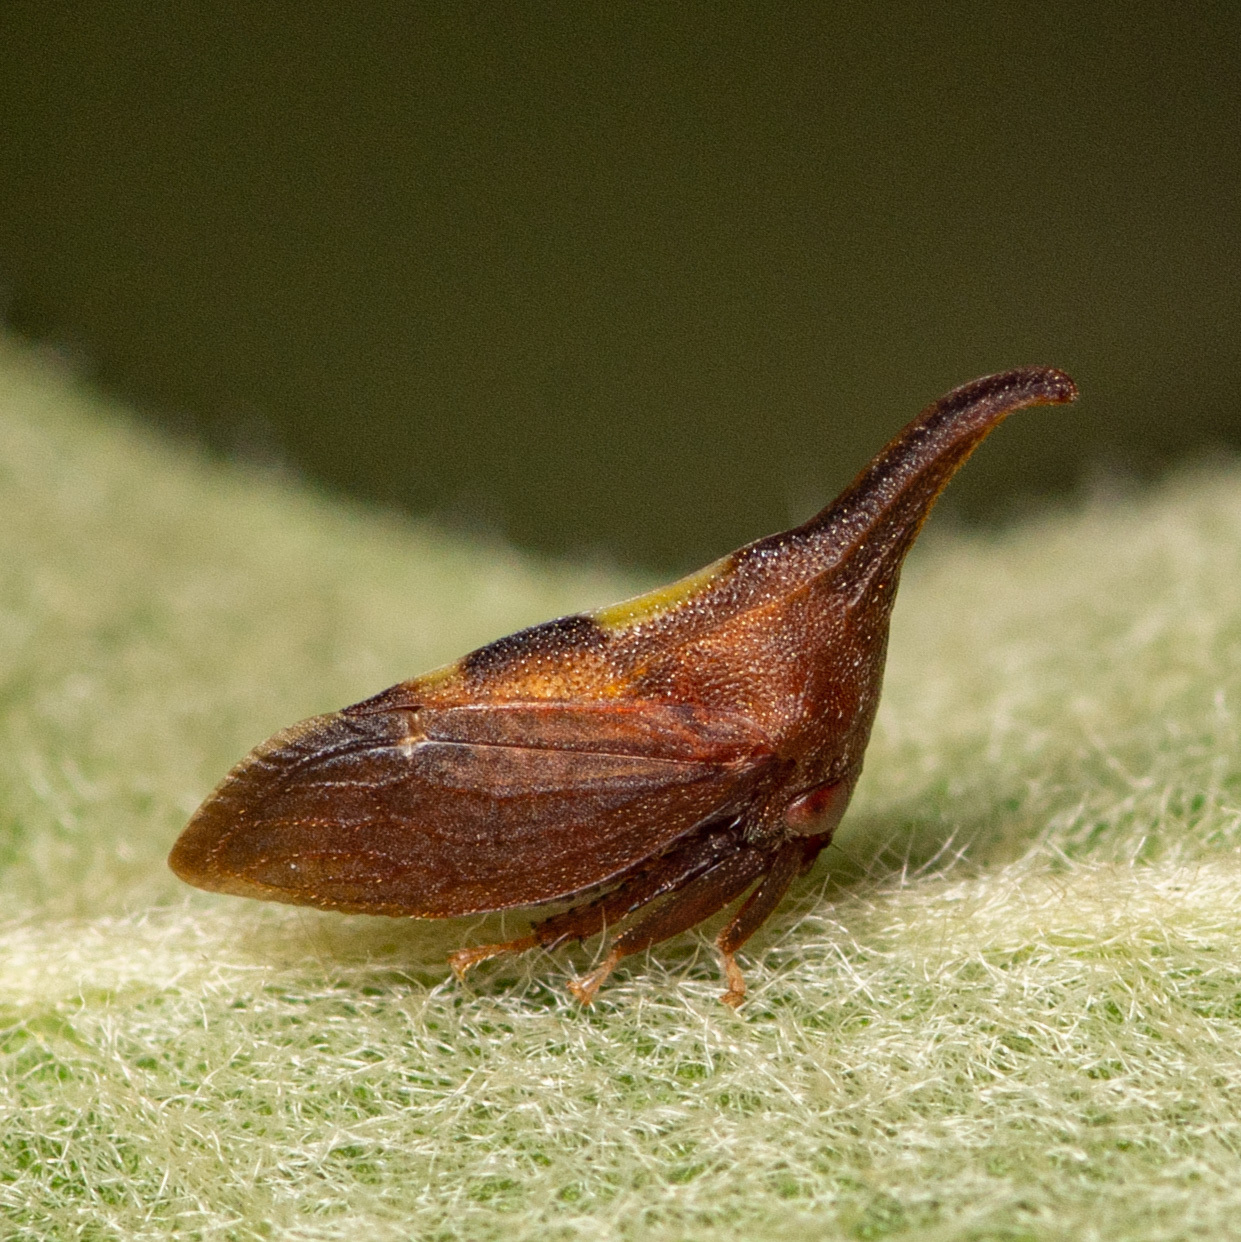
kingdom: Animalia
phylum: Arthropoda
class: Insecta
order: Hemiptera
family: Membracidae
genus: Enchenopa
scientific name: Enchenopa
